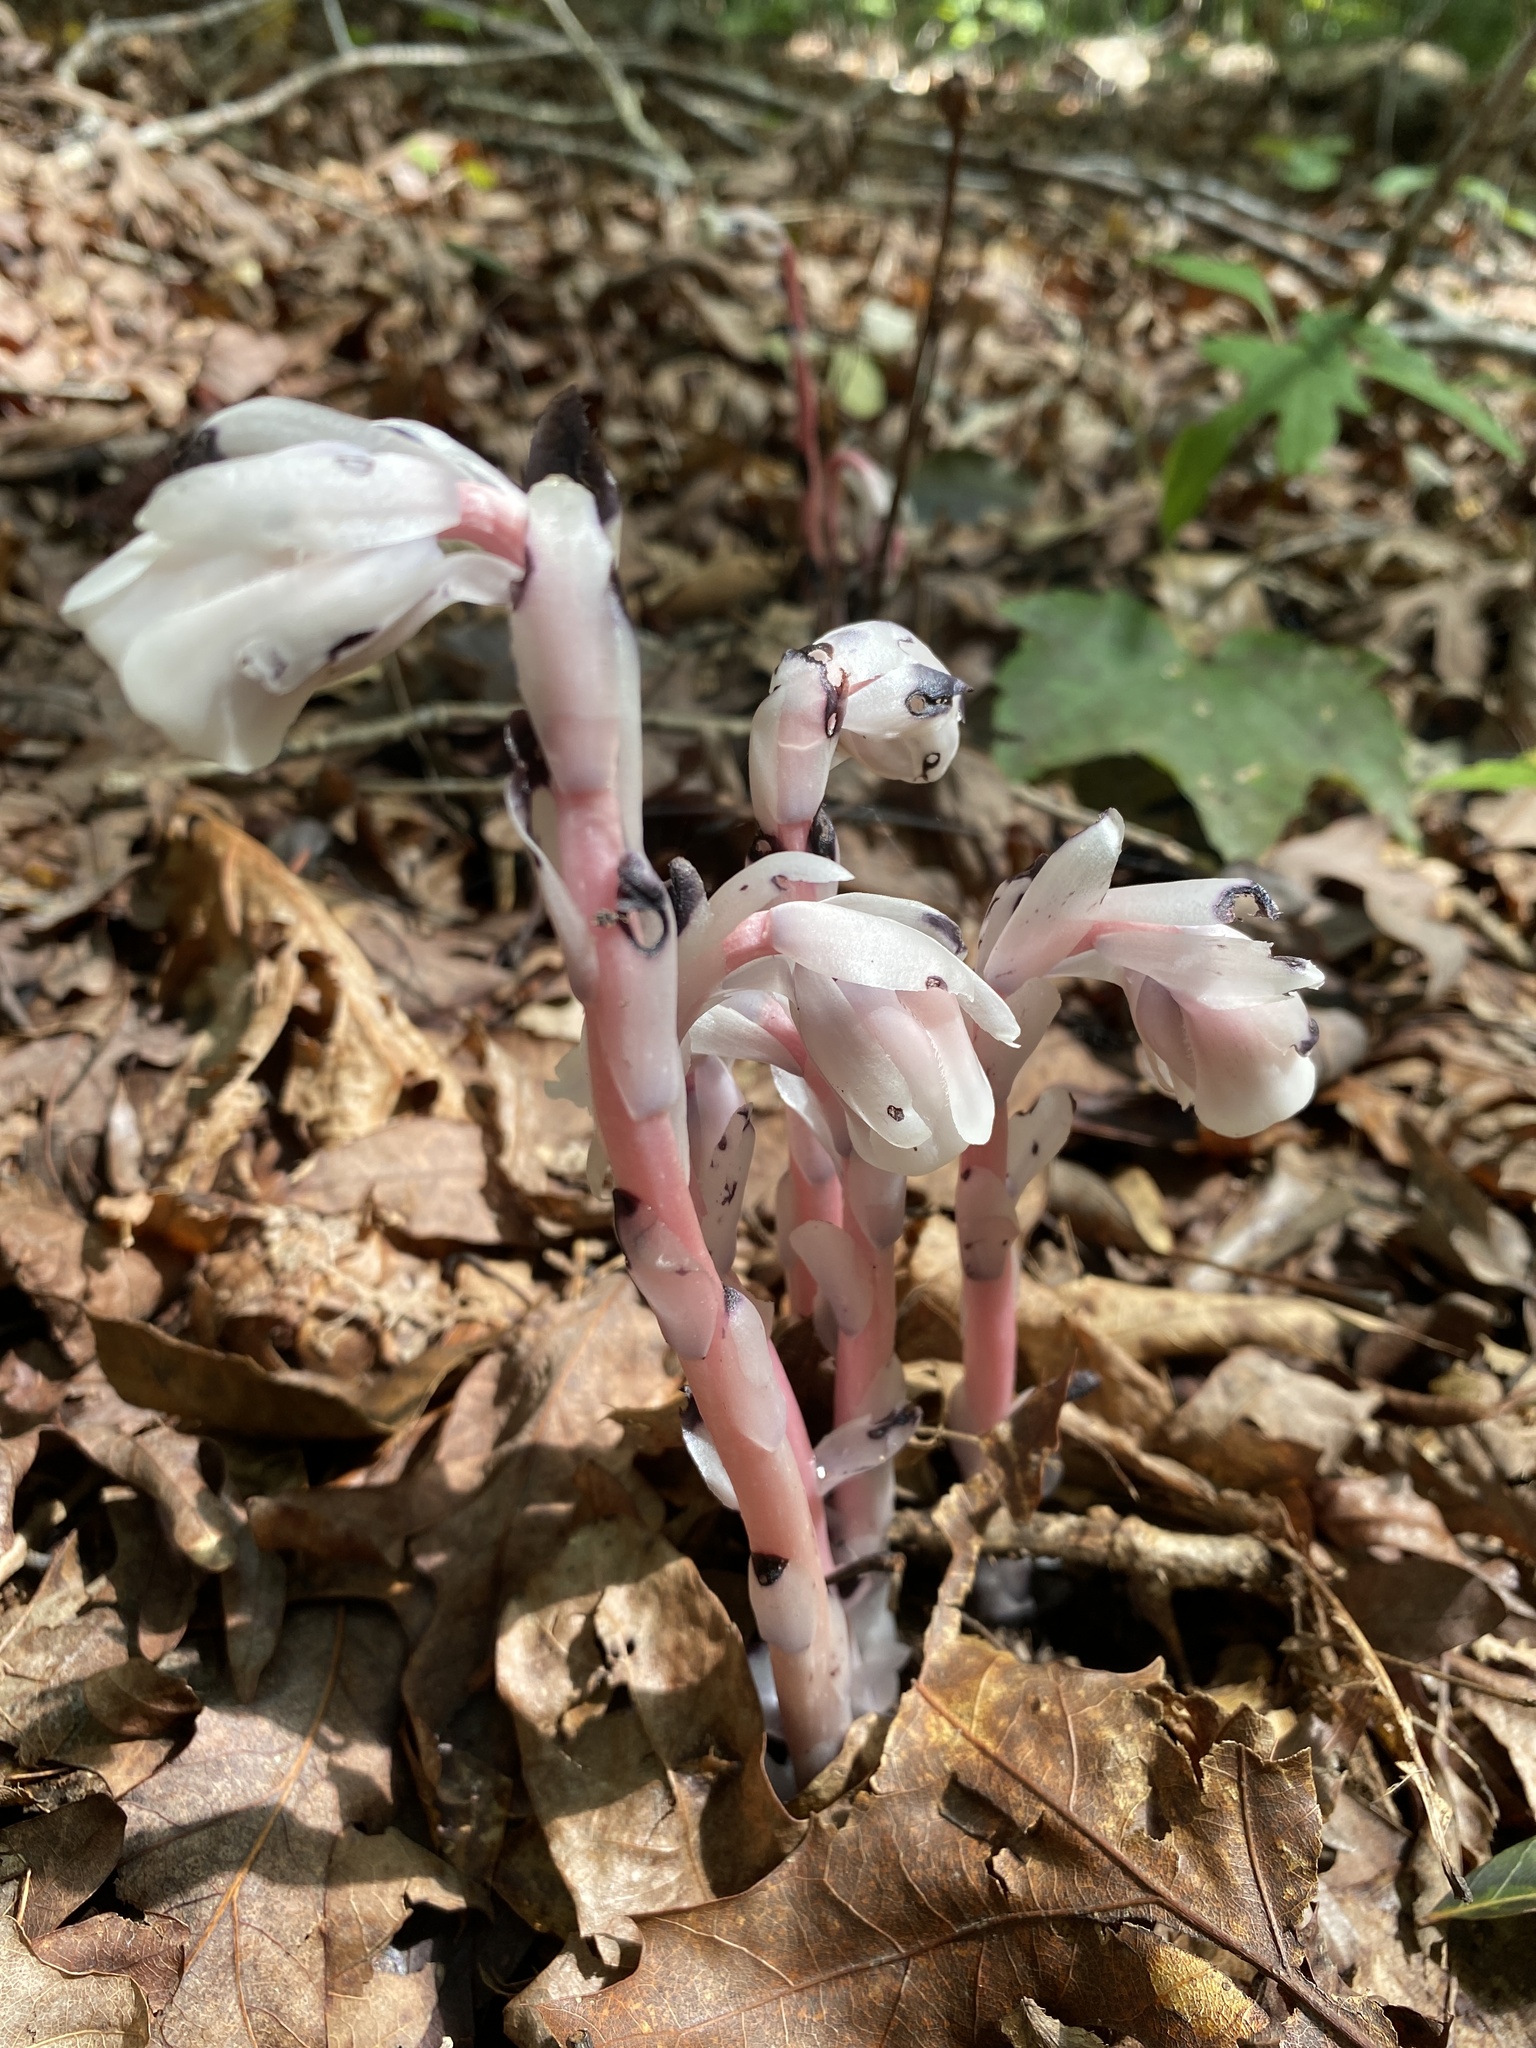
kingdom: Plantae
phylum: Tracheophyta
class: Magnoliopsida
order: Ericales
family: Ericaceae
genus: Monotropa
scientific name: Monotropa uniflora
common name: Convulsion root
